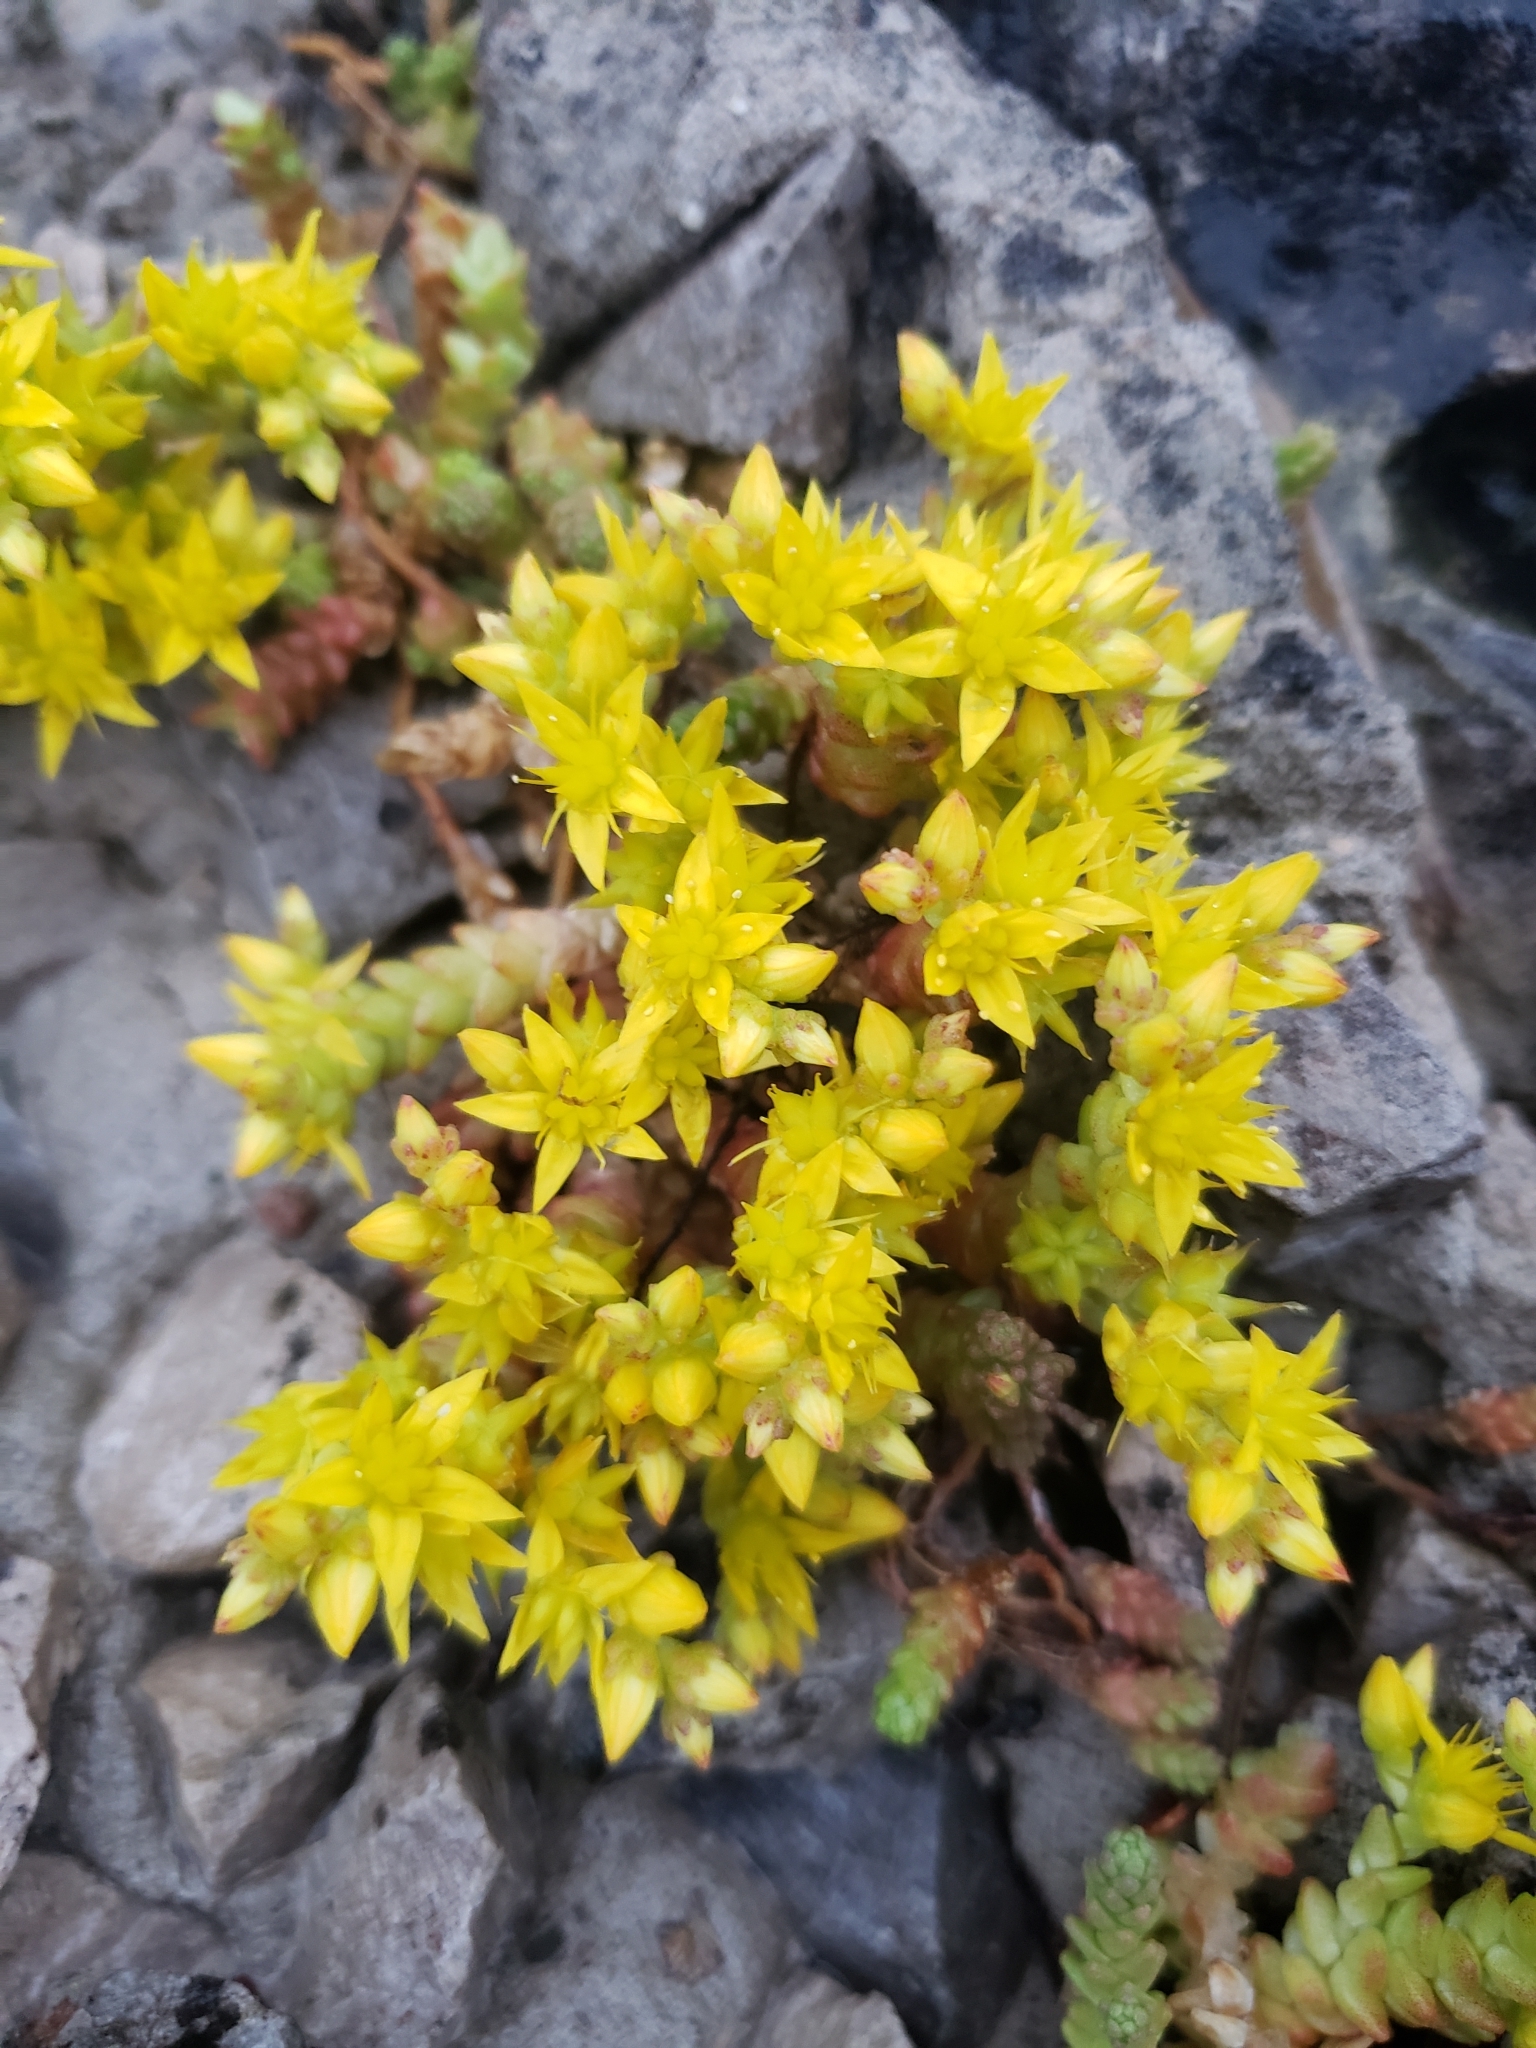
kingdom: Plantae
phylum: Tracheophyta
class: Magnoliopsida
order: Saxifragales
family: Crassulaceae
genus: Sedum
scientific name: Sedum acre
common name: Biting stonecrop
